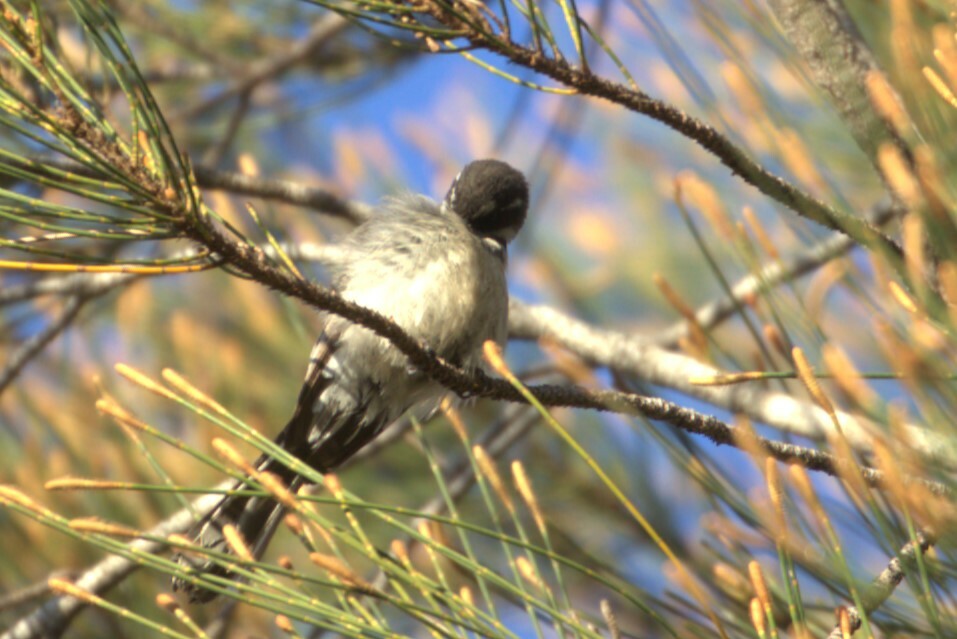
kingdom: Animalia
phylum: Chordata
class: Aves
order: Passeriformes
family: Rhipiduridae
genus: Rhipidura
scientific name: Rhipidura albiscapa
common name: Grey fantail
